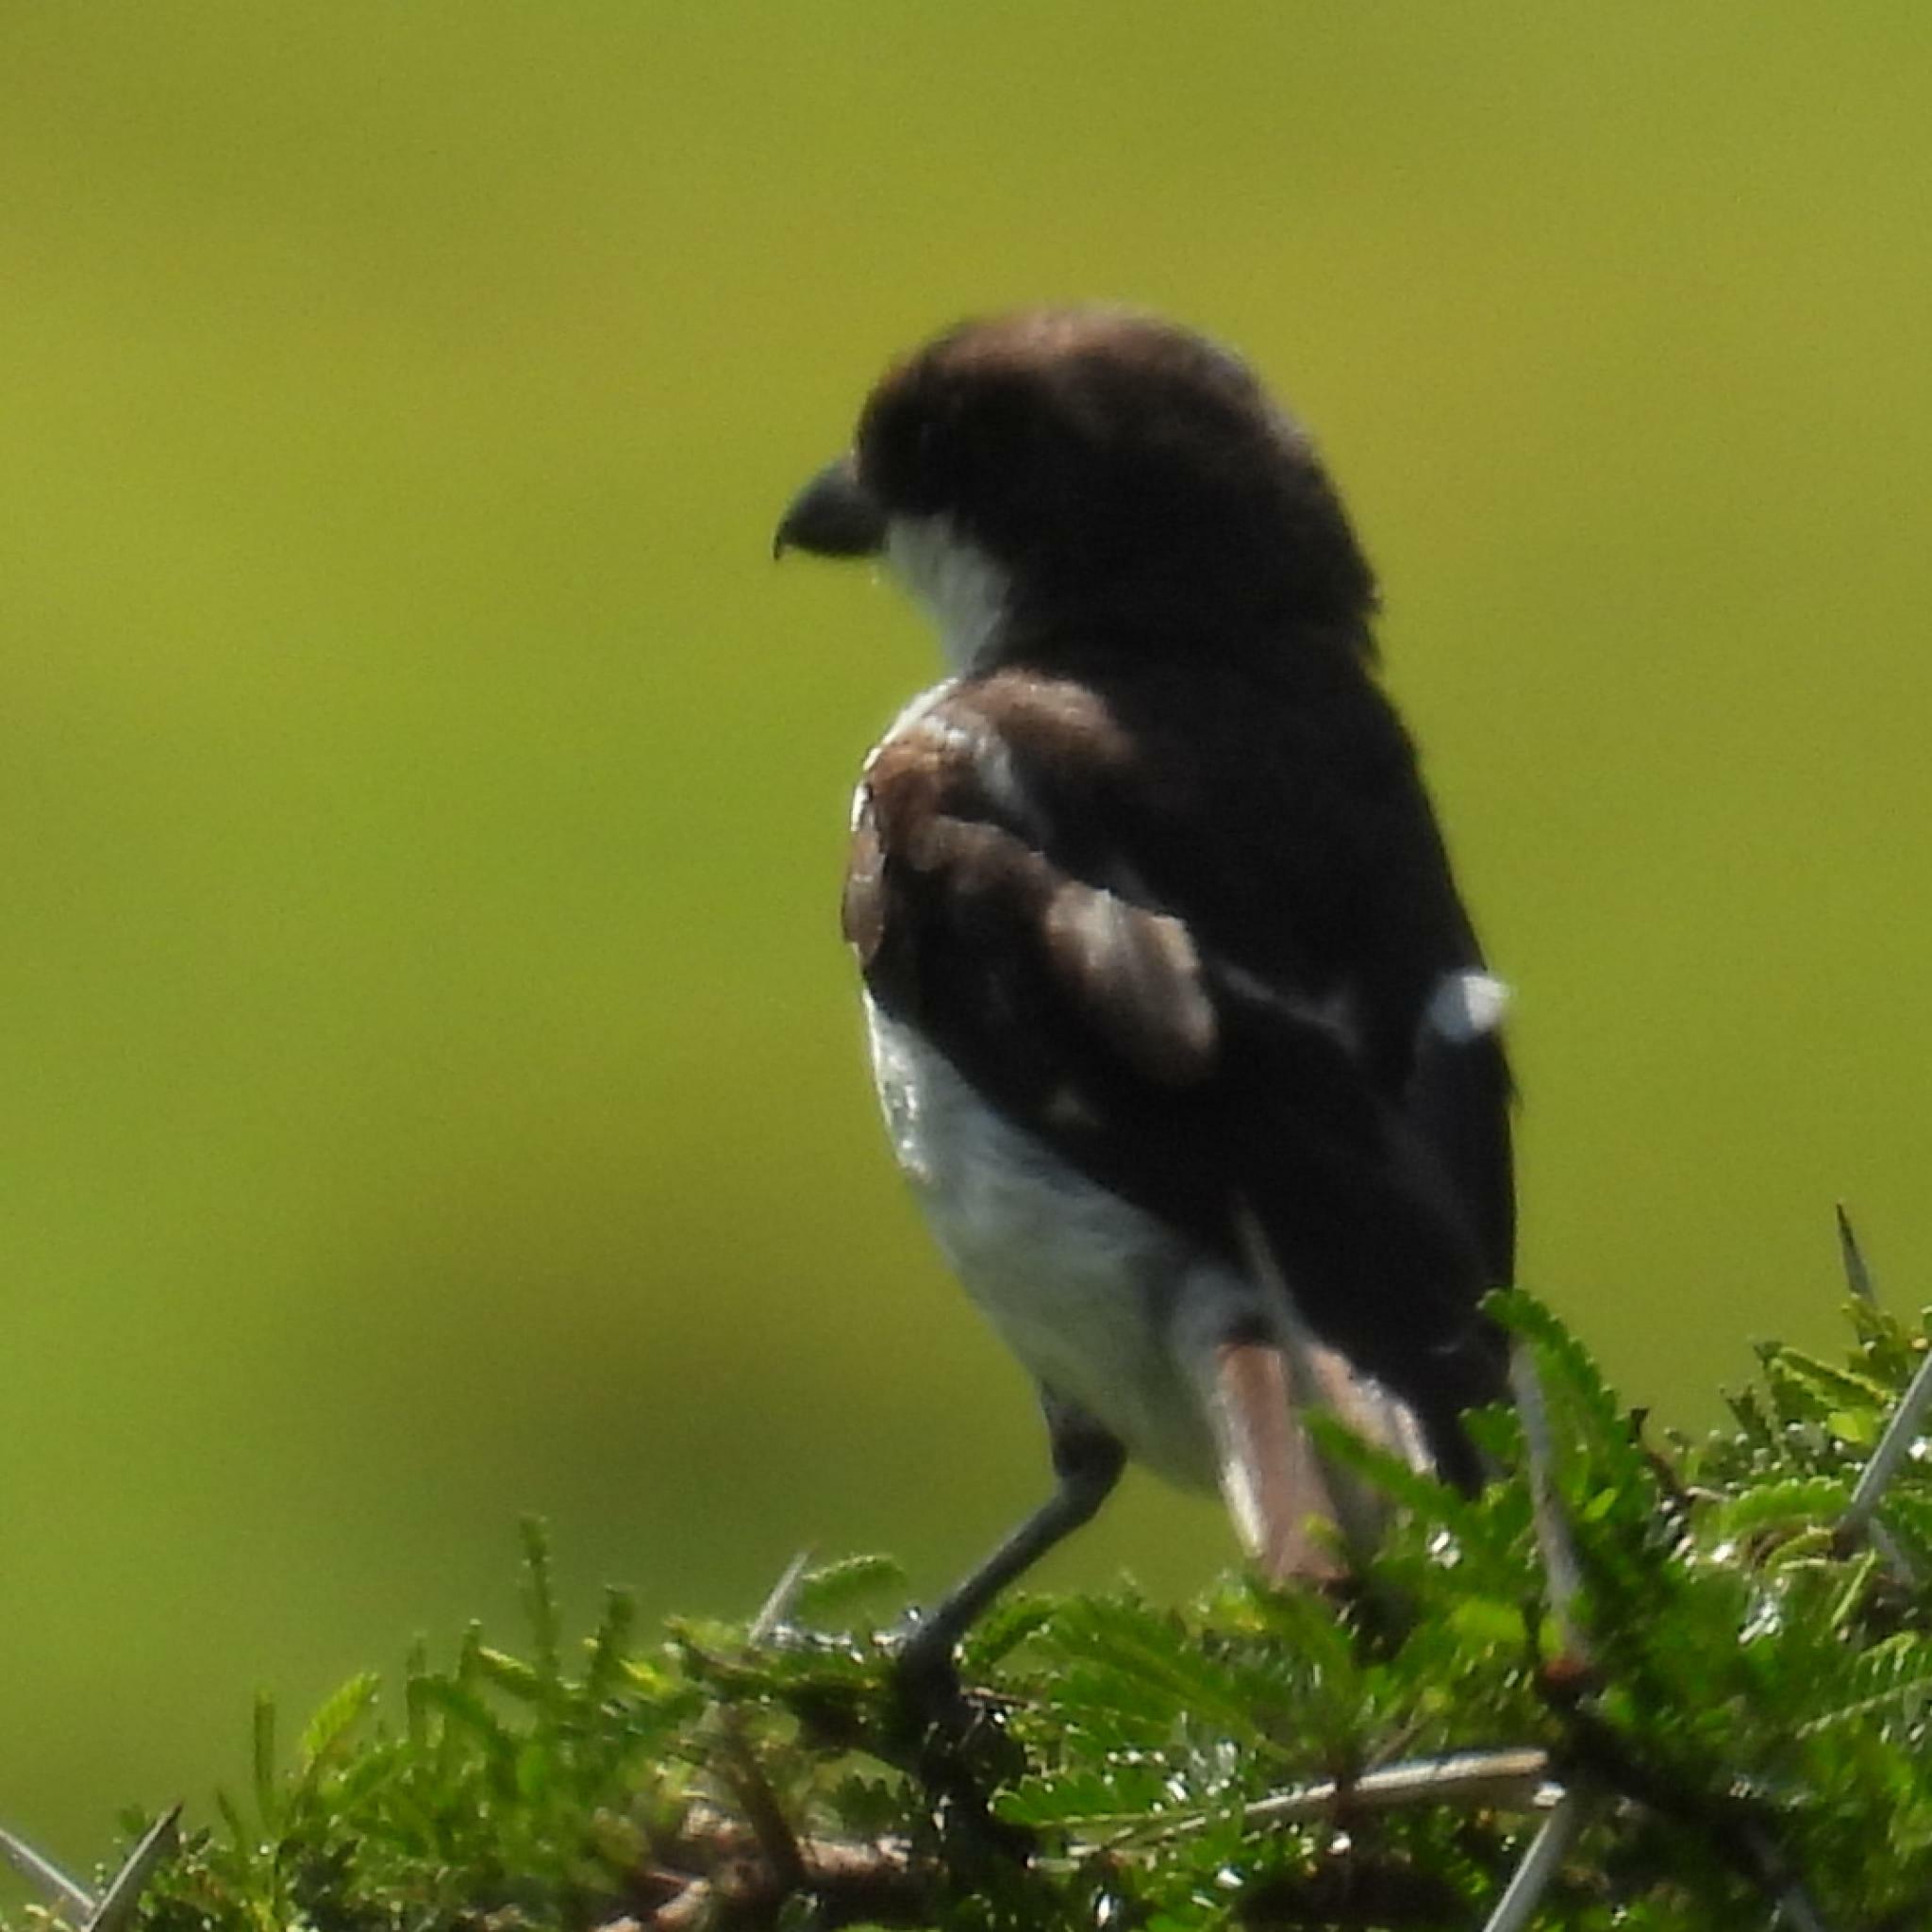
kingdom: Animalia
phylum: Chordata
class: Aves
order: Passeriformes
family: Laniidae
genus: Lanius
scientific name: Lanius collaris
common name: Southern fiscal
